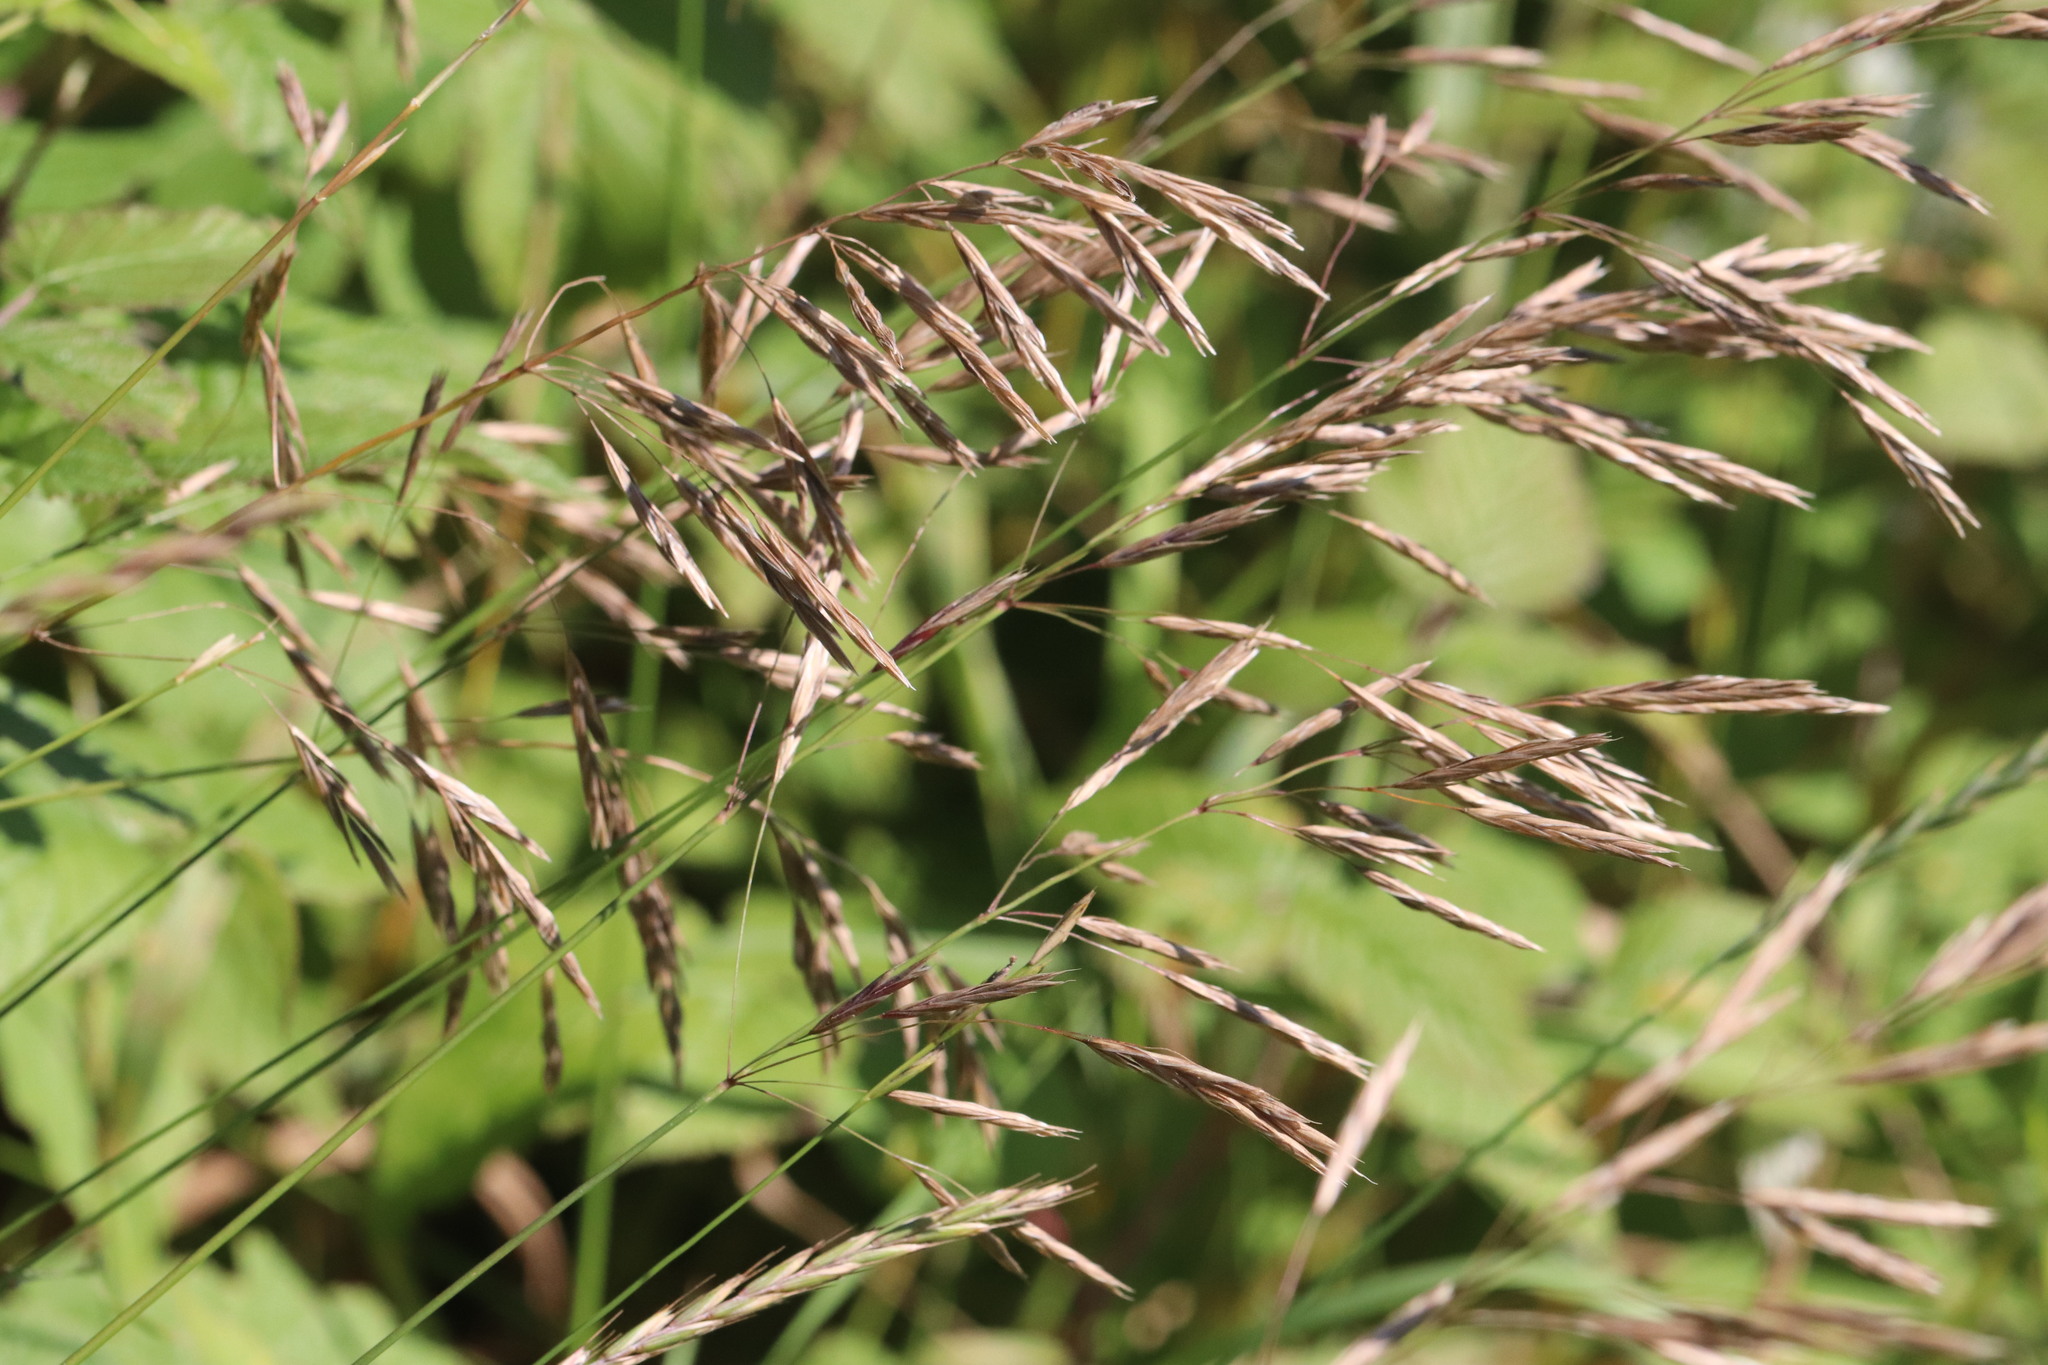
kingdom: Plantae
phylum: Tracheophyta
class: Liliopsida
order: Poales
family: Poaceae
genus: Bromus
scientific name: Bromus inermis
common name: Smooth brome
